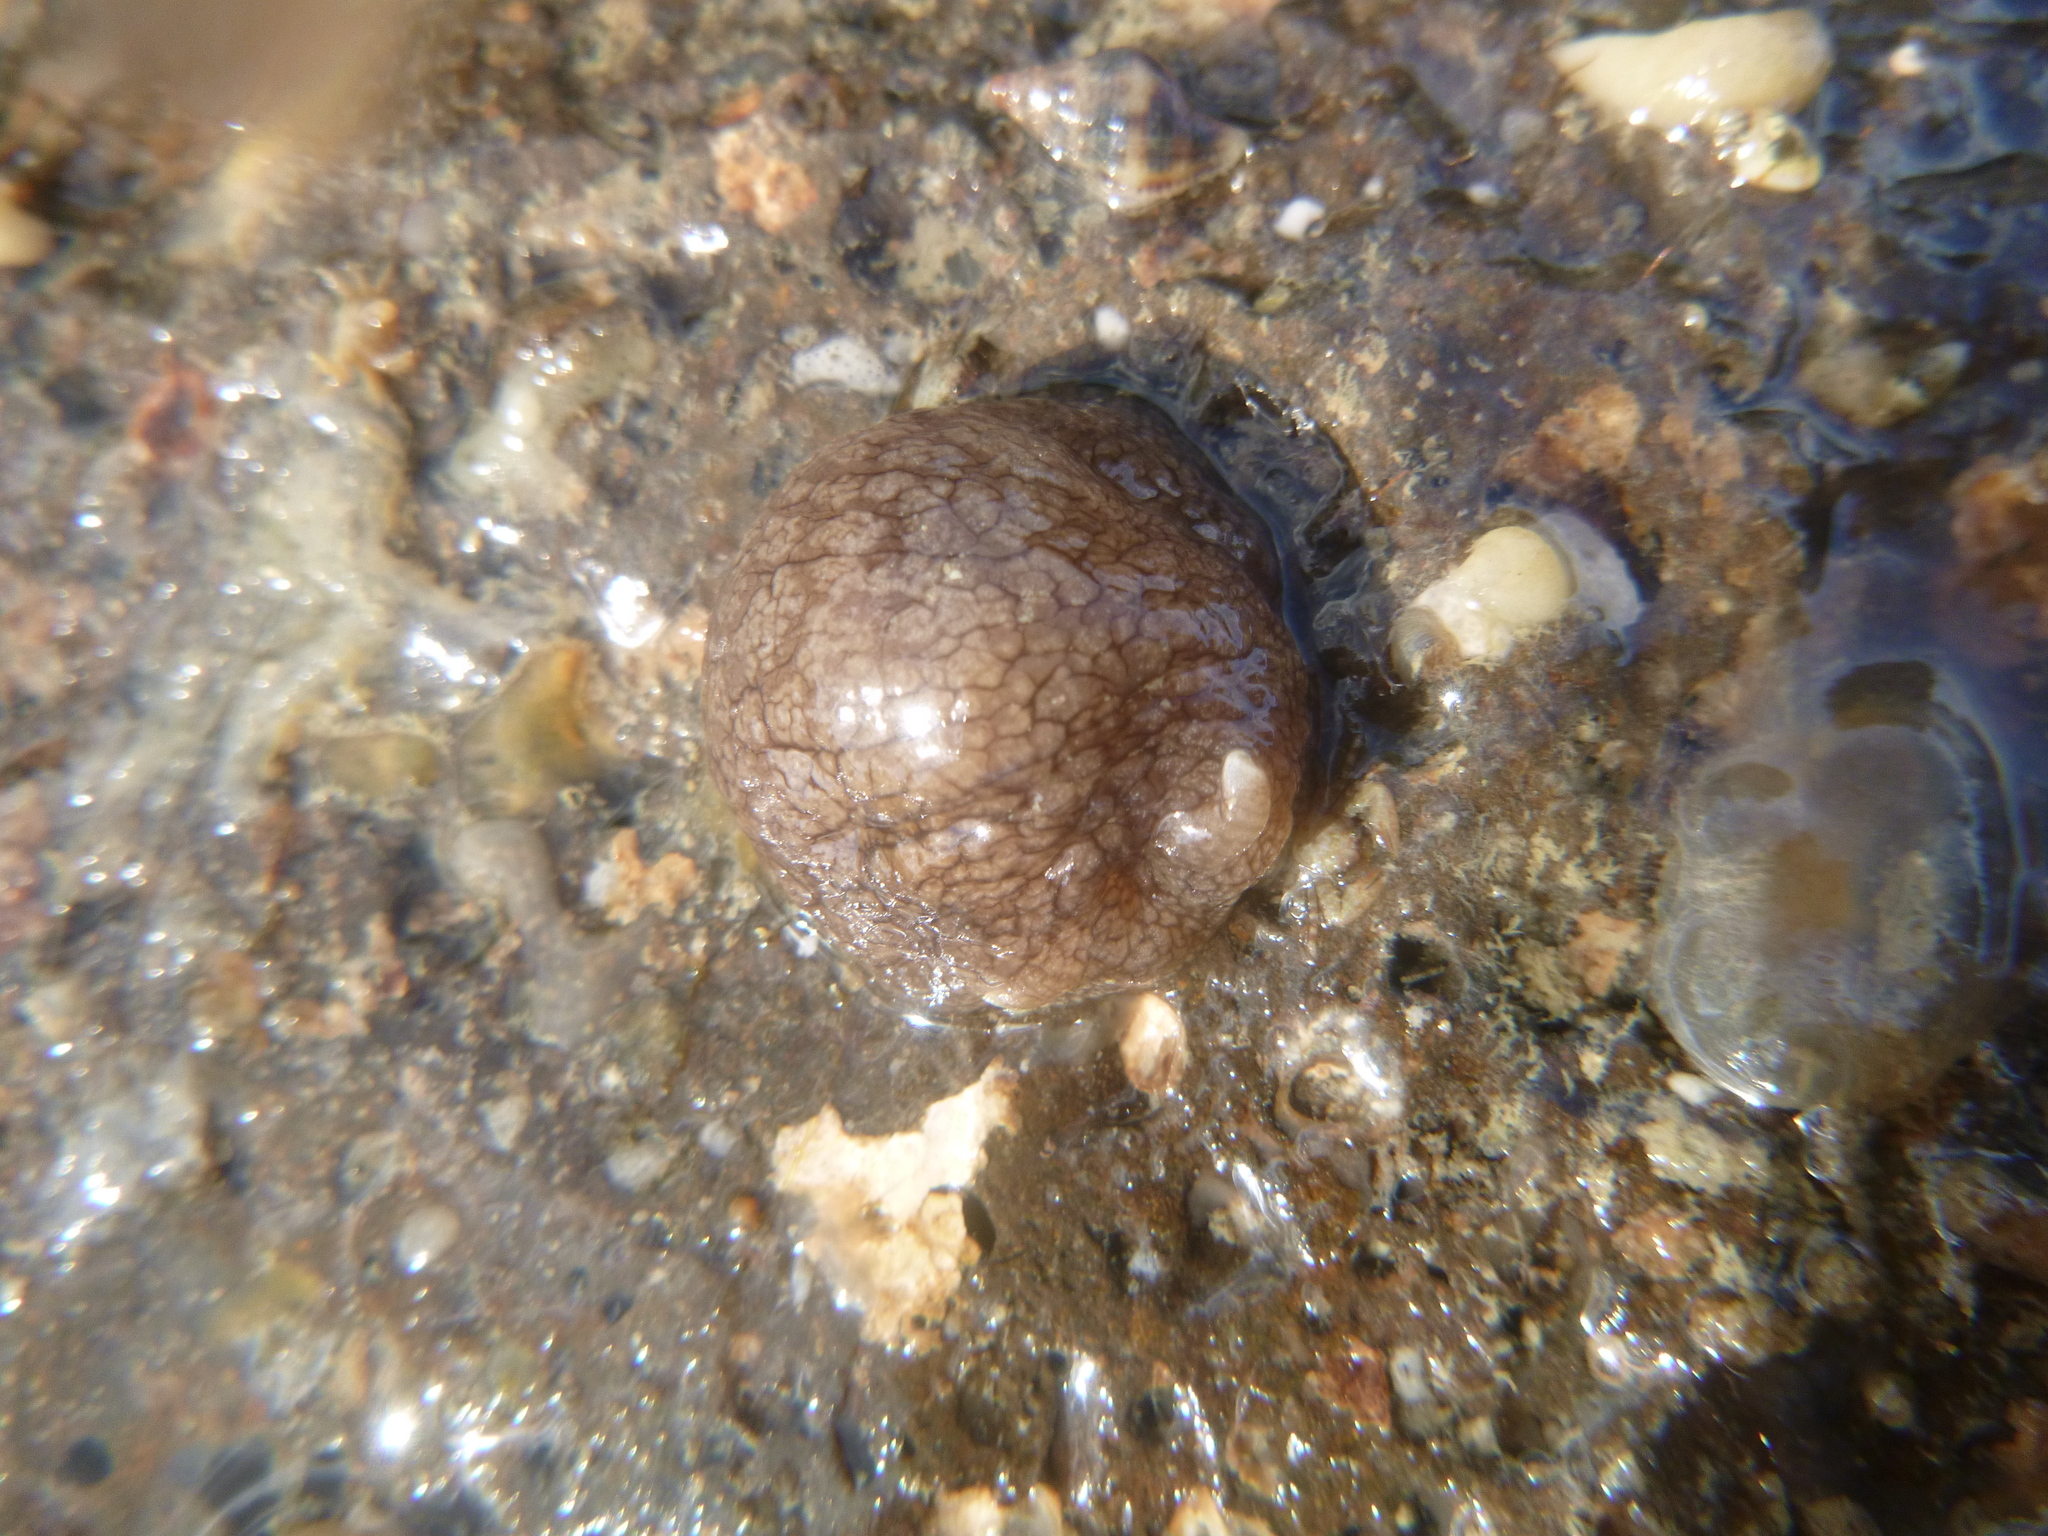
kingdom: Animalia
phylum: Mollusca
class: Gastropoda
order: Pleurobranchida
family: Pleurobranchaeidae
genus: Pleurobranchaea
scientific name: Pleurobranchaea maculata
